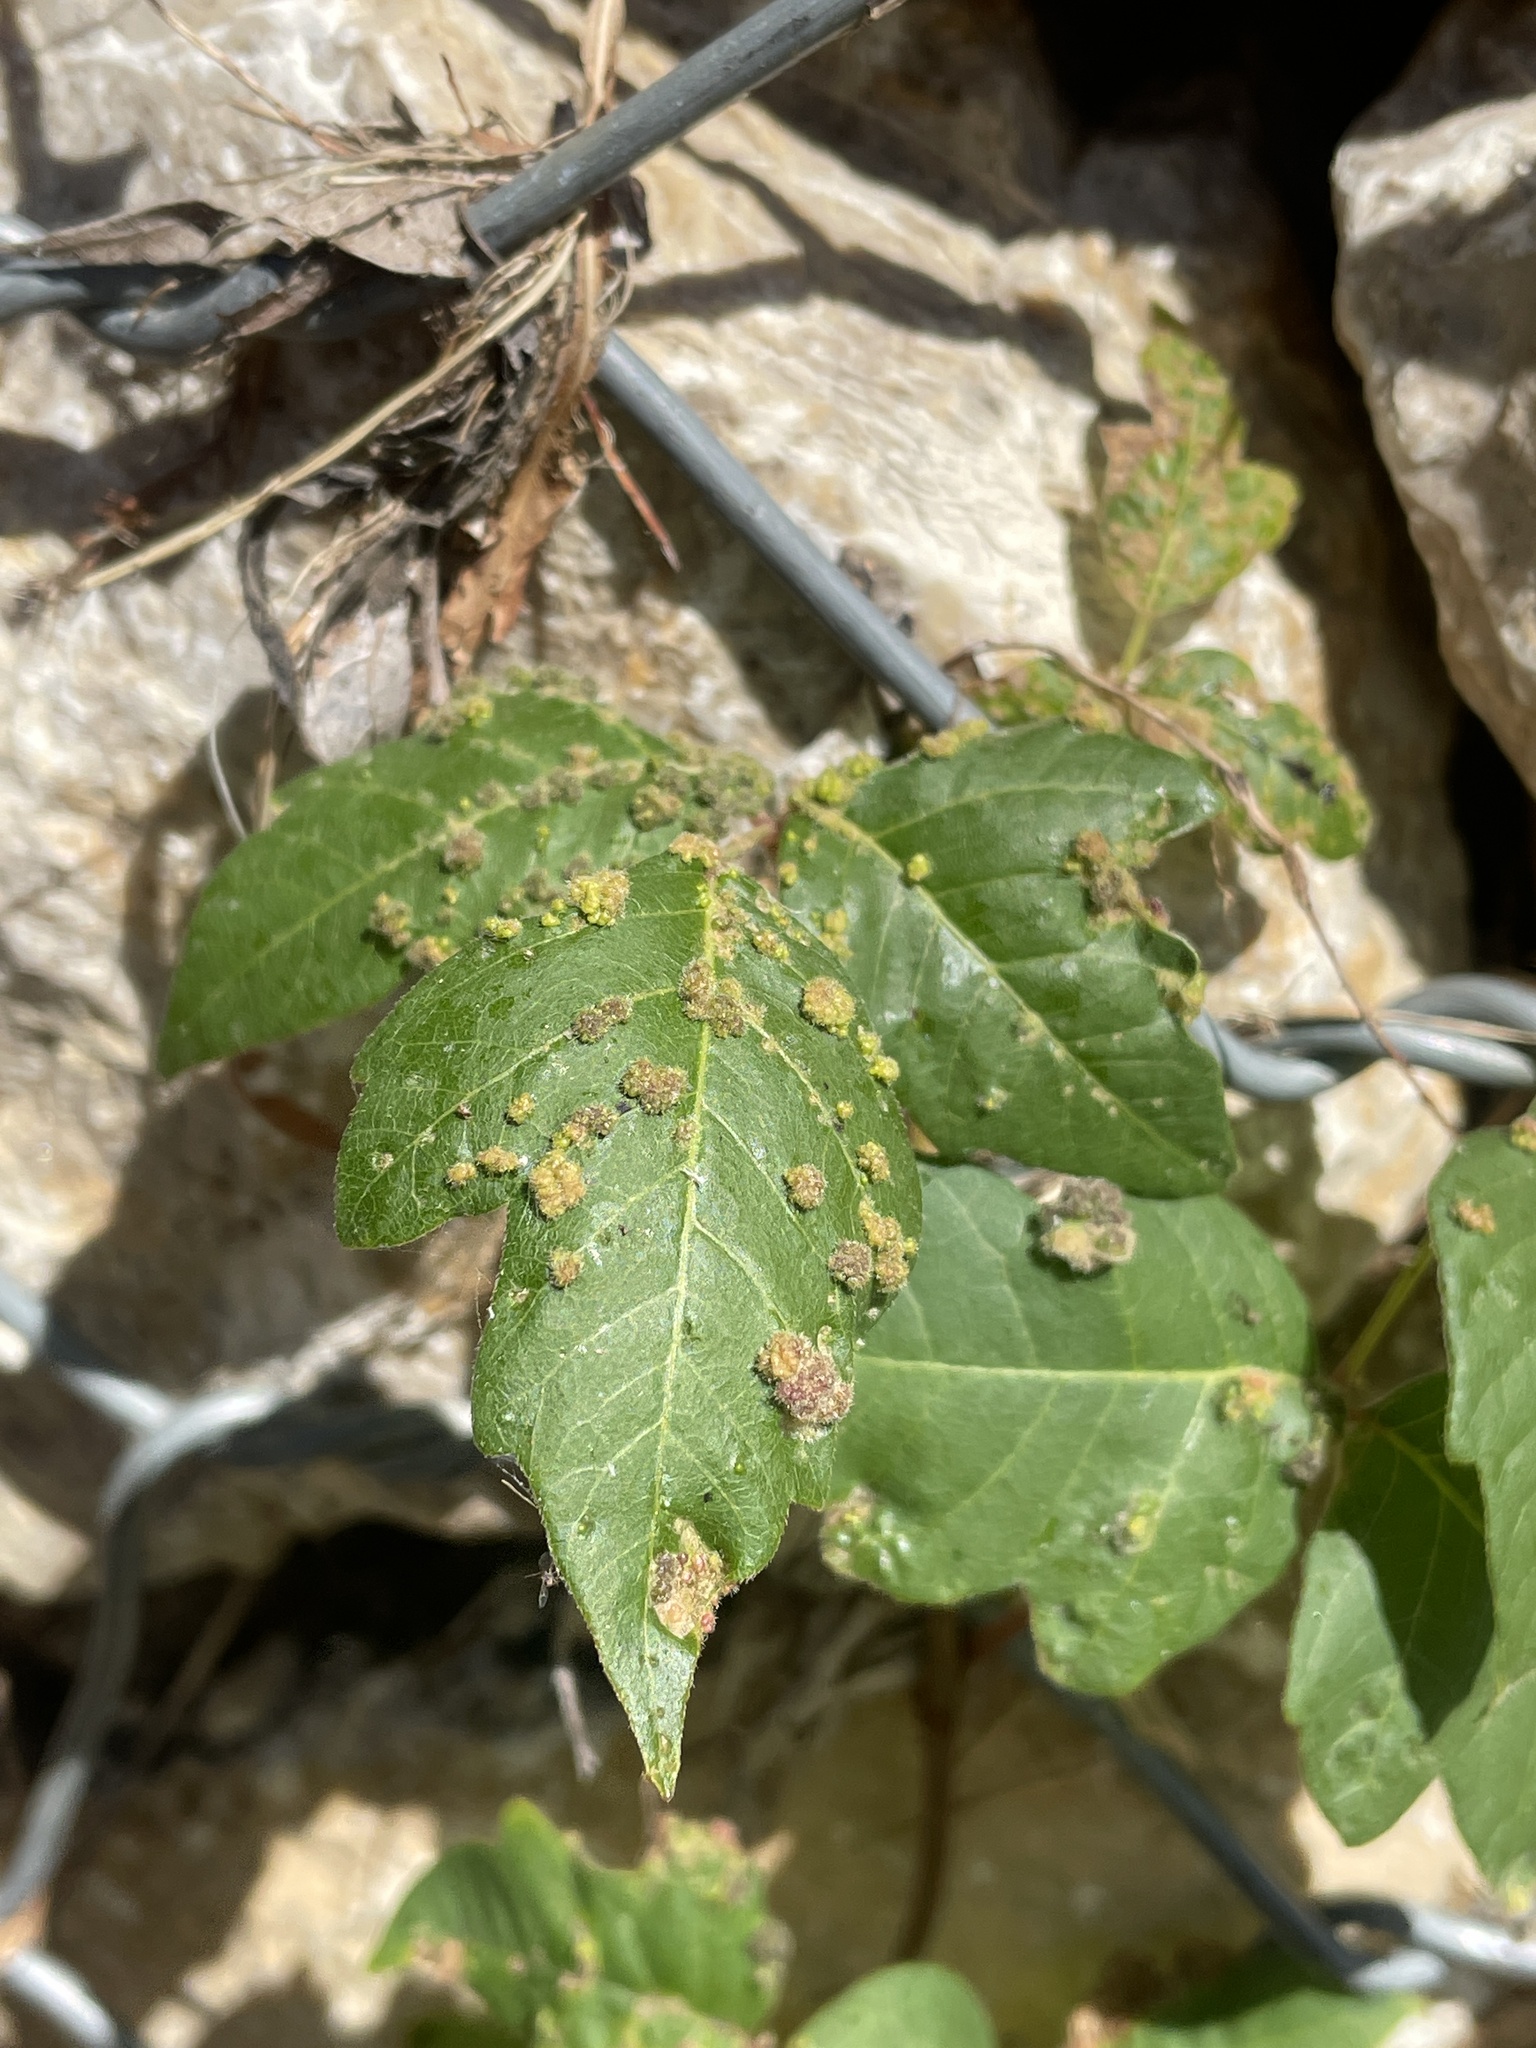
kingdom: Animalia
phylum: Arthropoda
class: Arachnida
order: Trombidiformes
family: Eriophyidae
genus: Aculops
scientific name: Aculops
